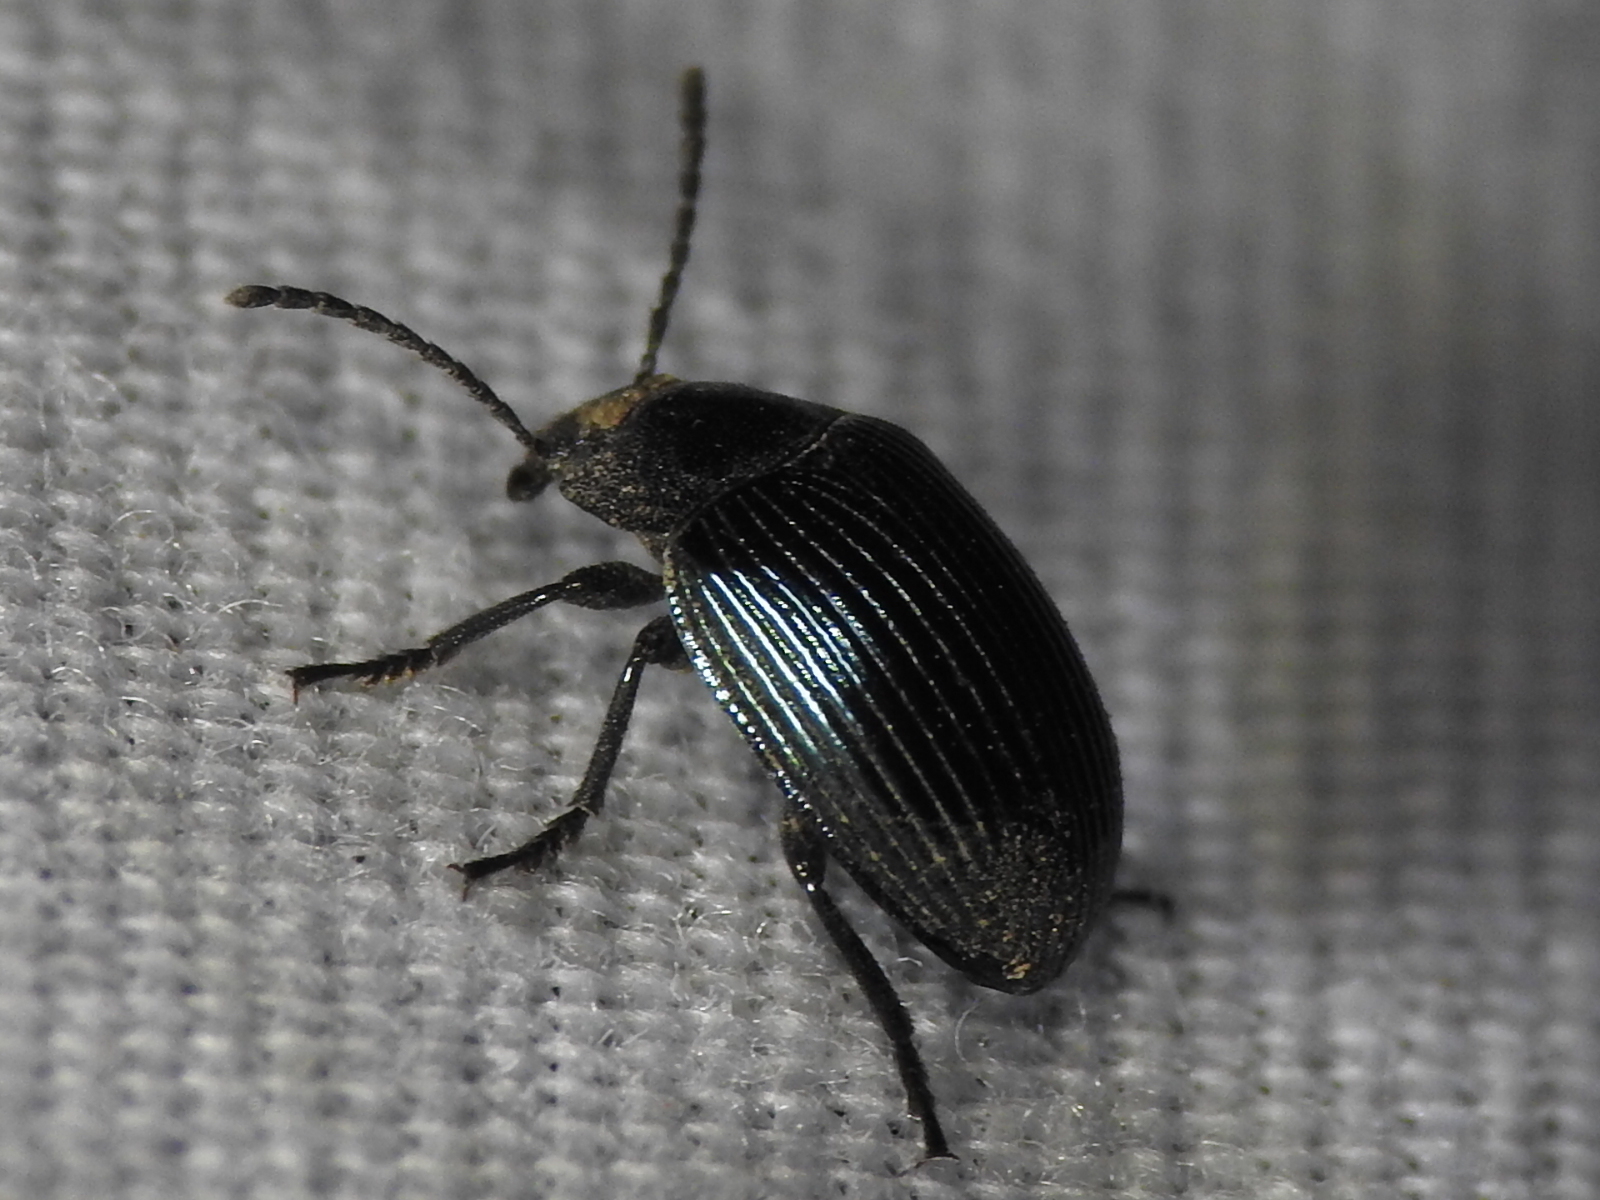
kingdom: Animalia
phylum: Arthropoda
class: Insecta
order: Coleoptera
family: Tenebrionidae
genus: Helops
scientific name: Helops farctus
